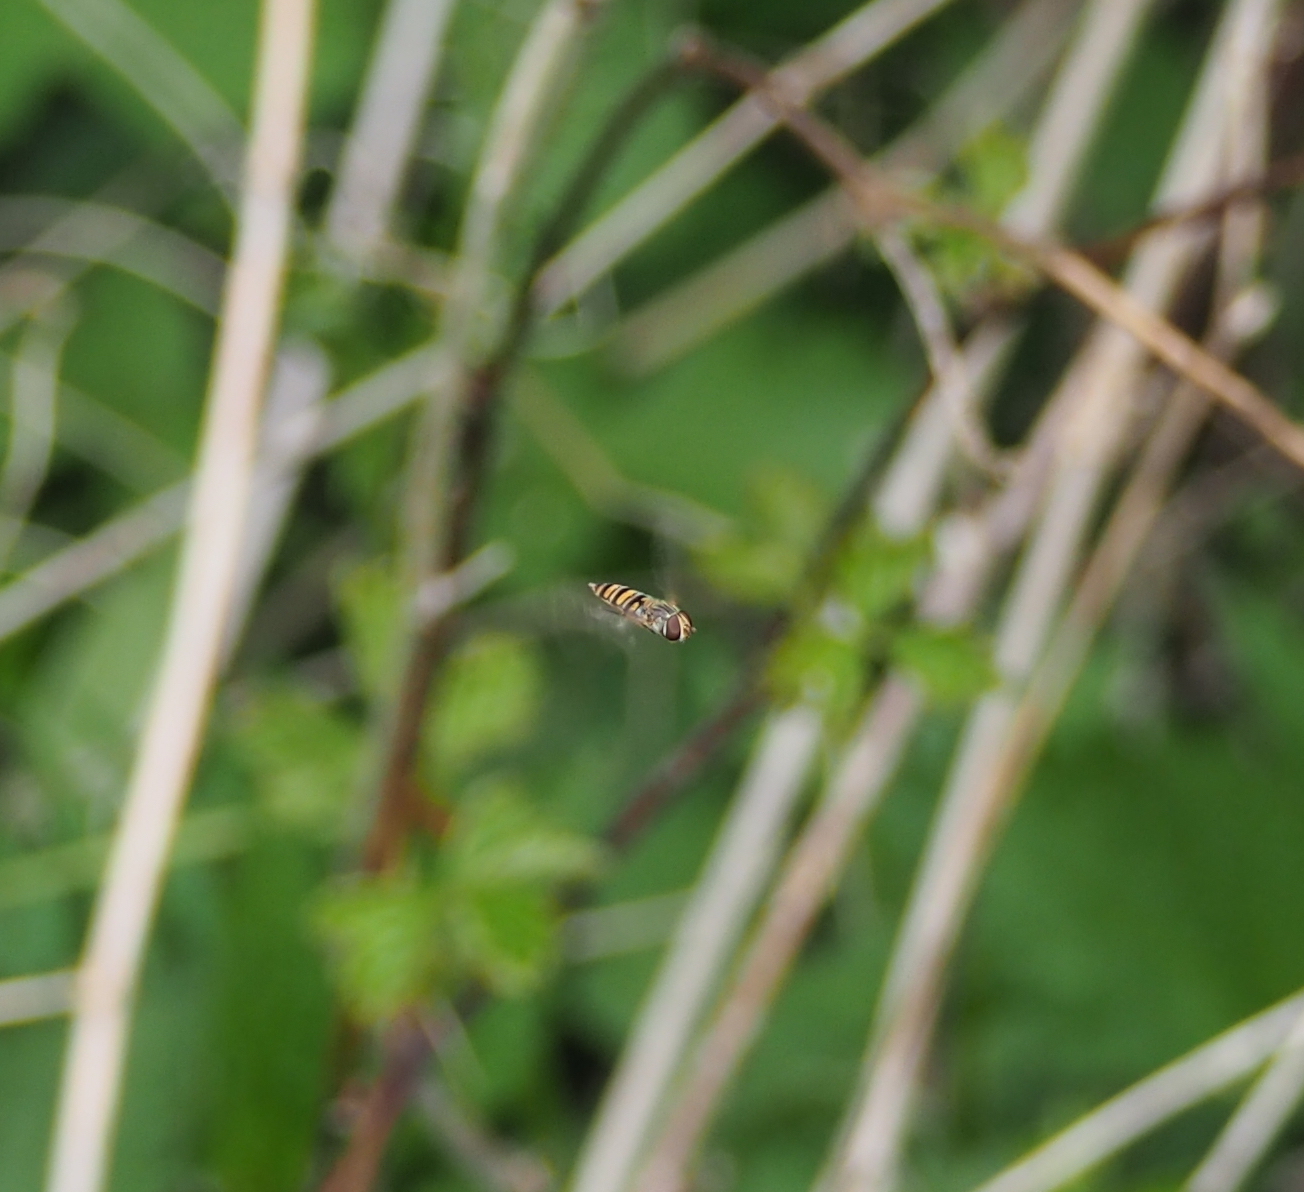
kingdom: Animalia
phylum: Arthropoda
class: Insecta
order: Diptera
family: Syrphidae
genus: Episyrphus
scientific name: Episyrphus balteatus
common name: Marmalade hoverfly
